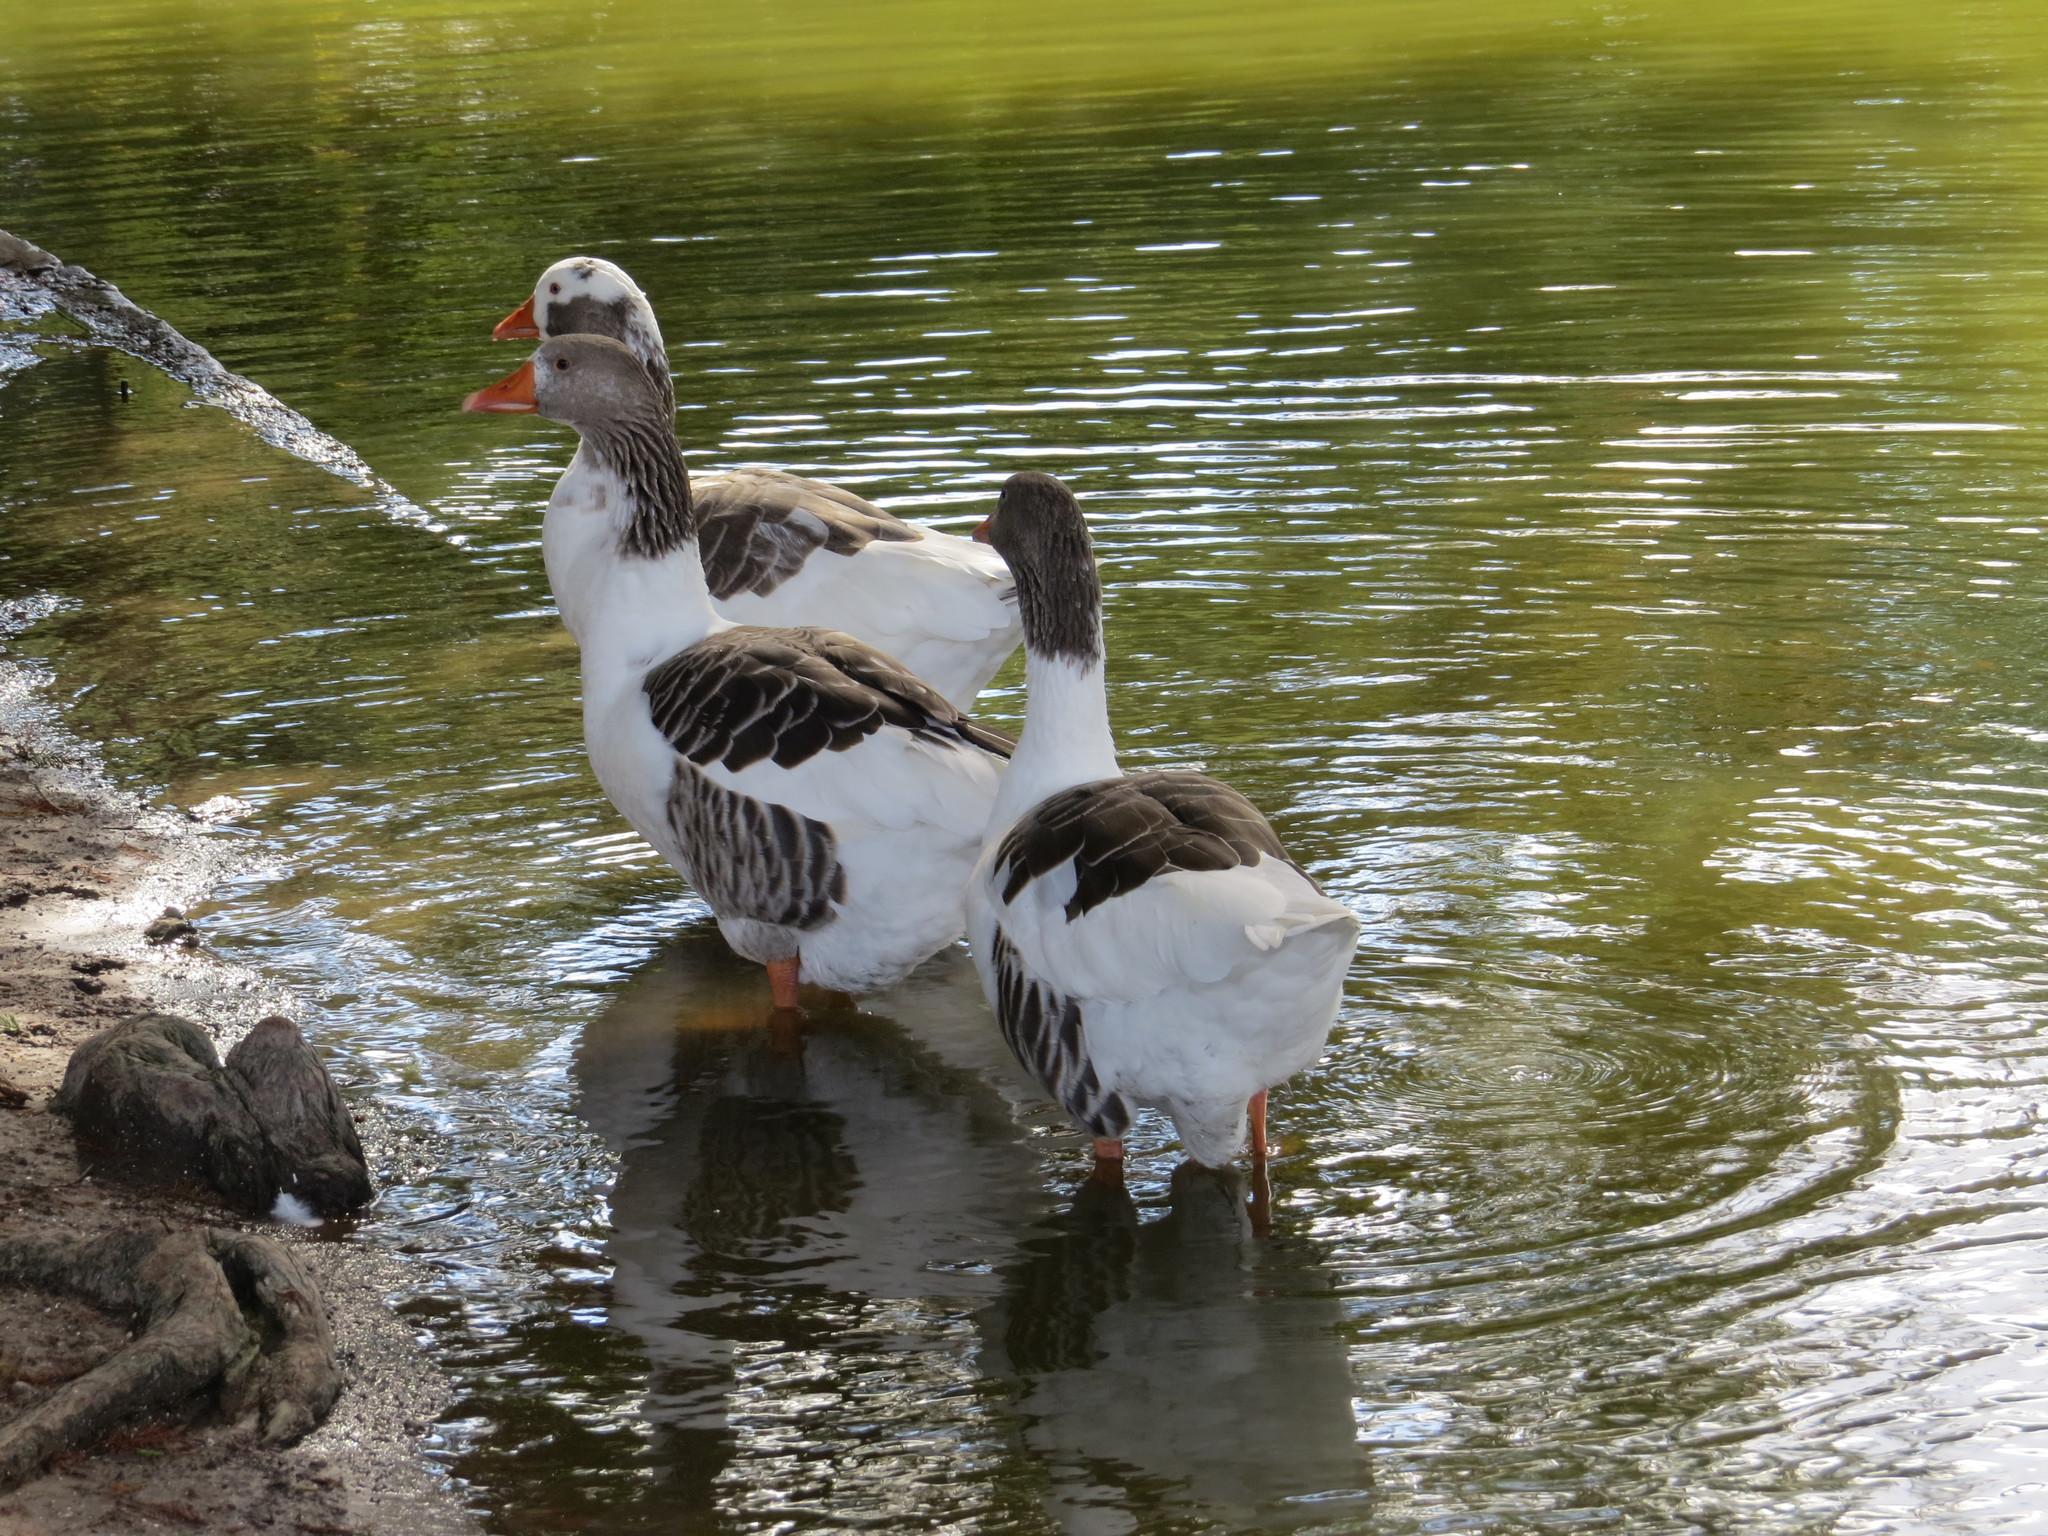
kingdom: Animalia
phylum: Chordata
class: Aves
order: Anseriformes
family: Anatidae
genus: Anser
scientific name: Anser anser
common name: Greylag goose
